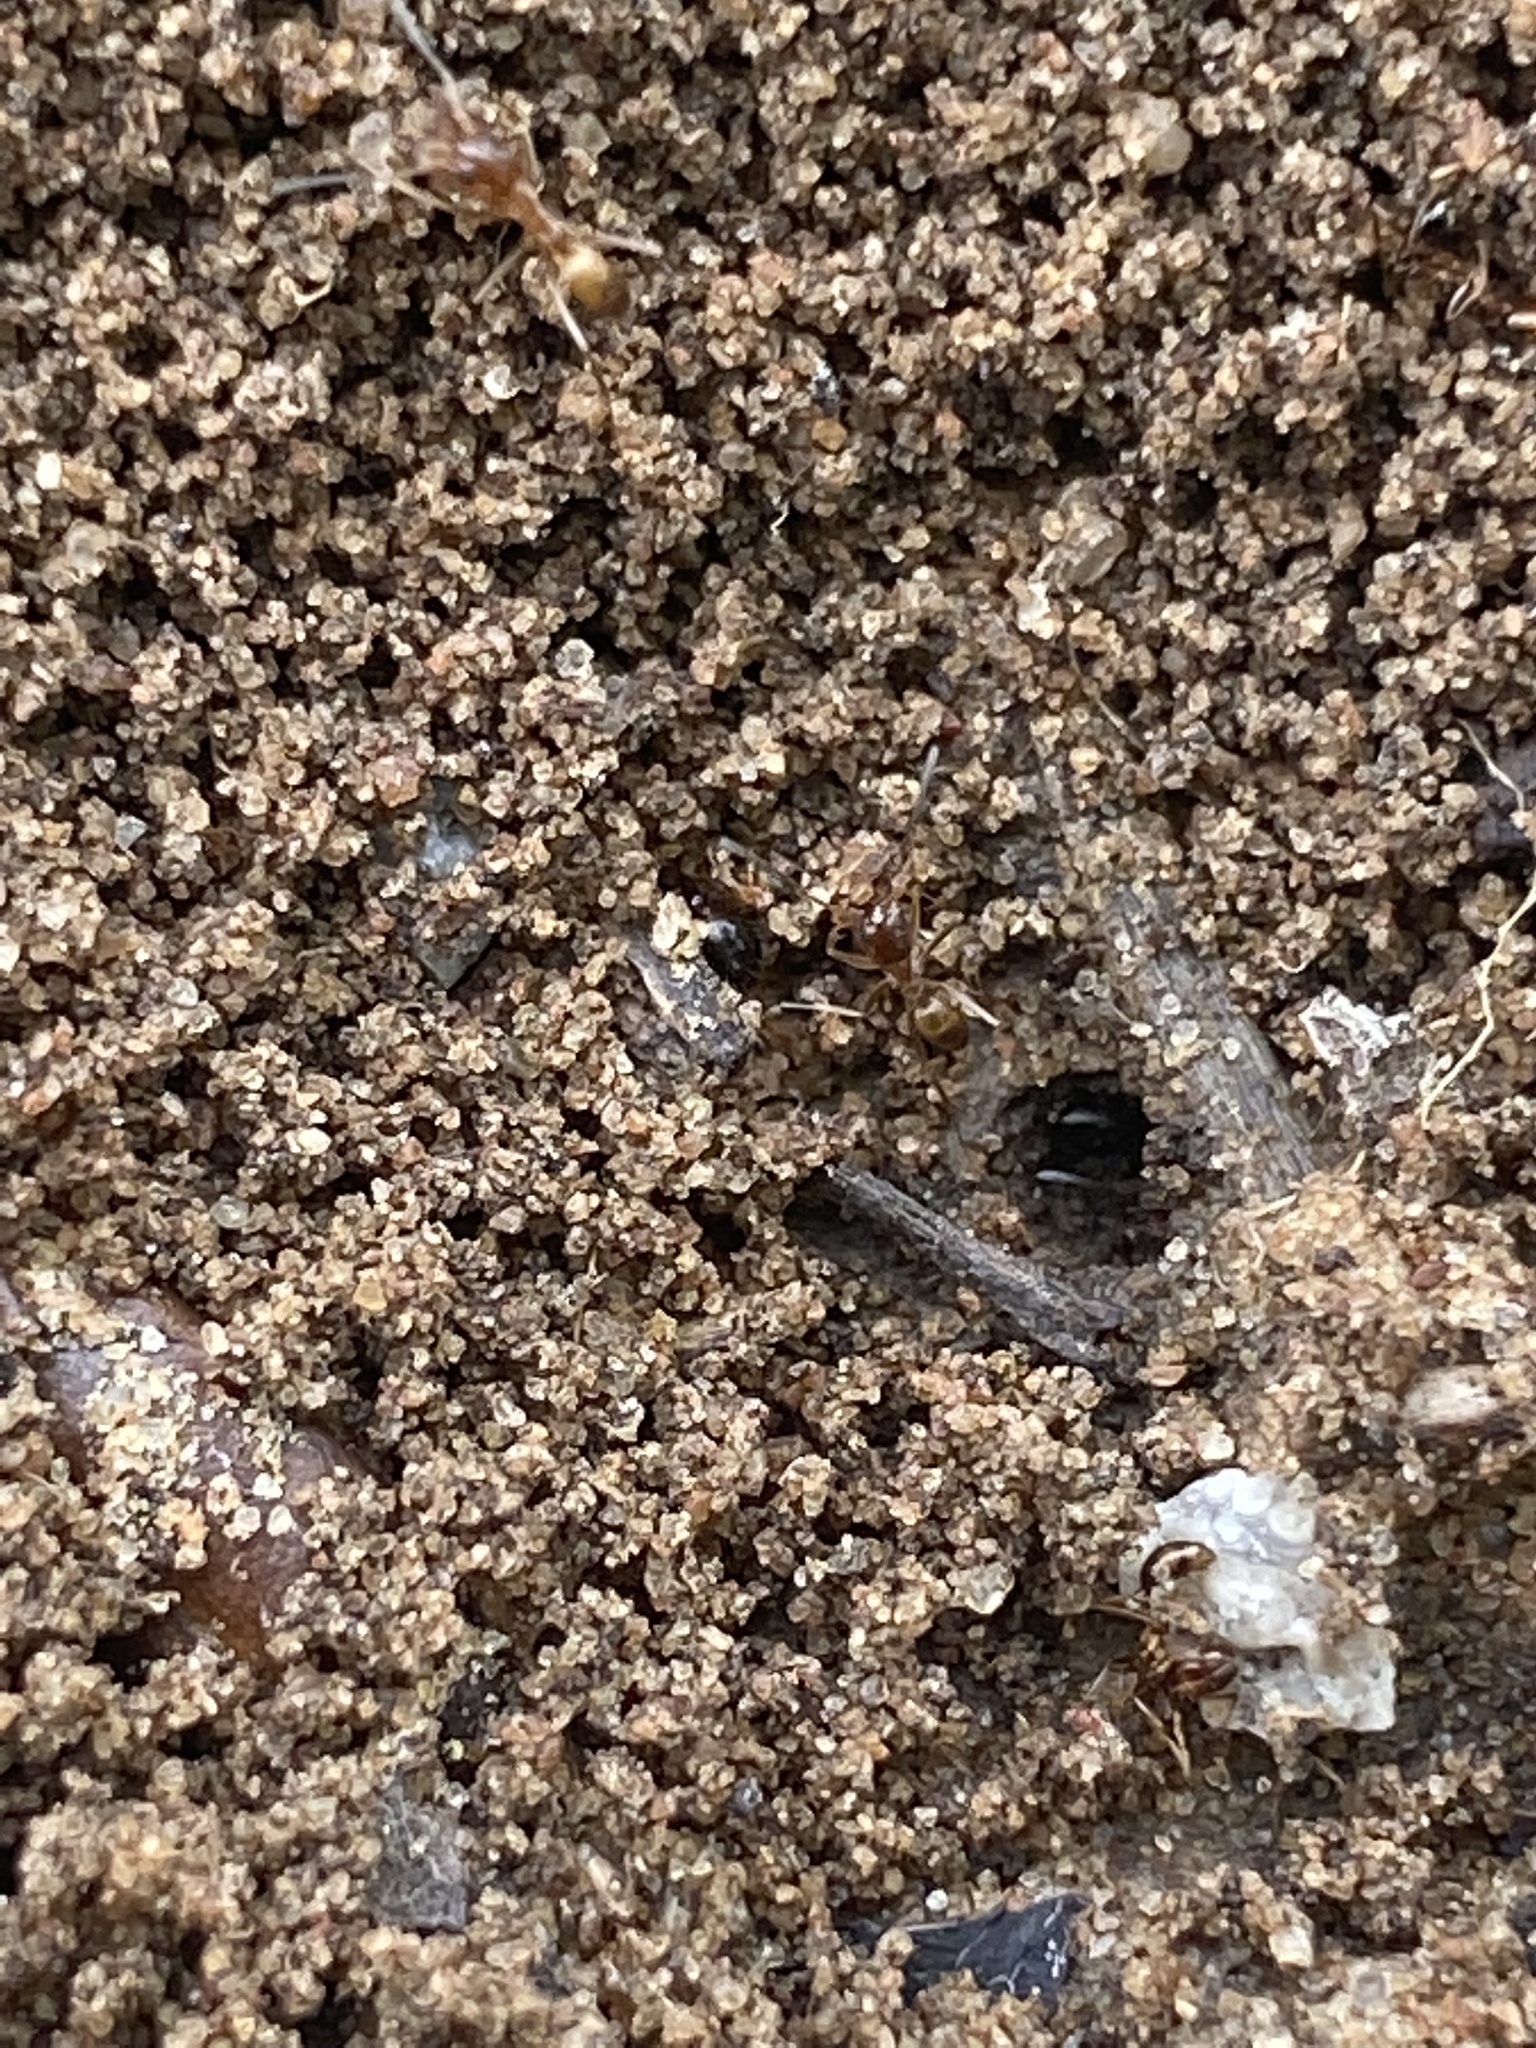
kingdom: Animalia
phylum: Arthropoda
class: Insecta
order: Hymenoptera
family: Formicidae
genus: Dorymyrmex
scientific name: Dorymyrmex flavus
